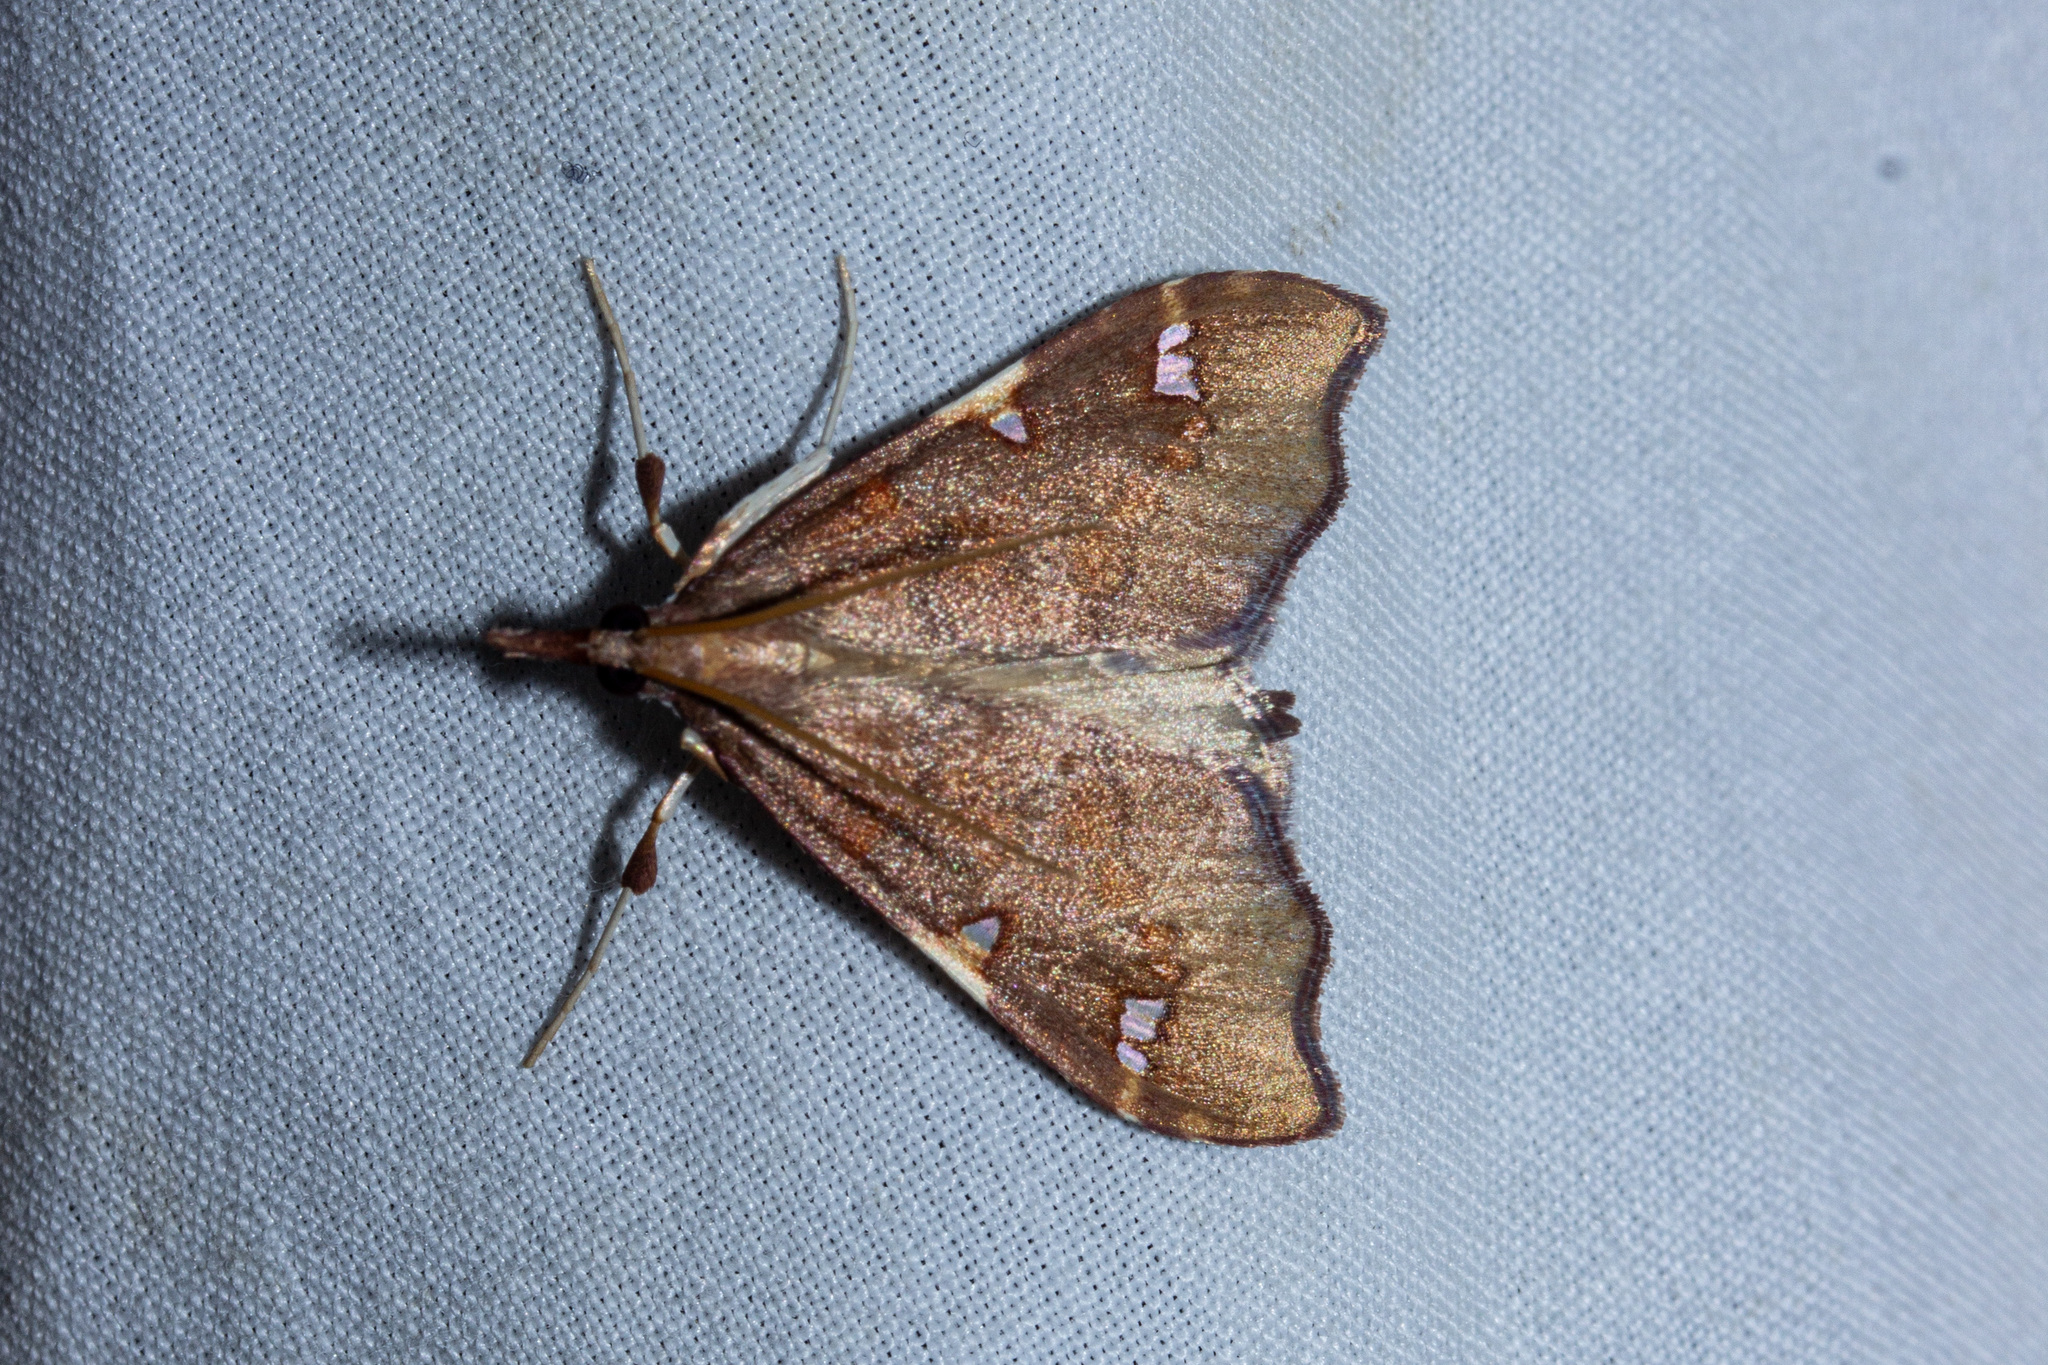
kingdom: Animalia
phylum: Arthropoda
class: Insecta
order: Lepidoptera
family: Crambidae
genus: Deana
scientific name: Deana hybreasalis
